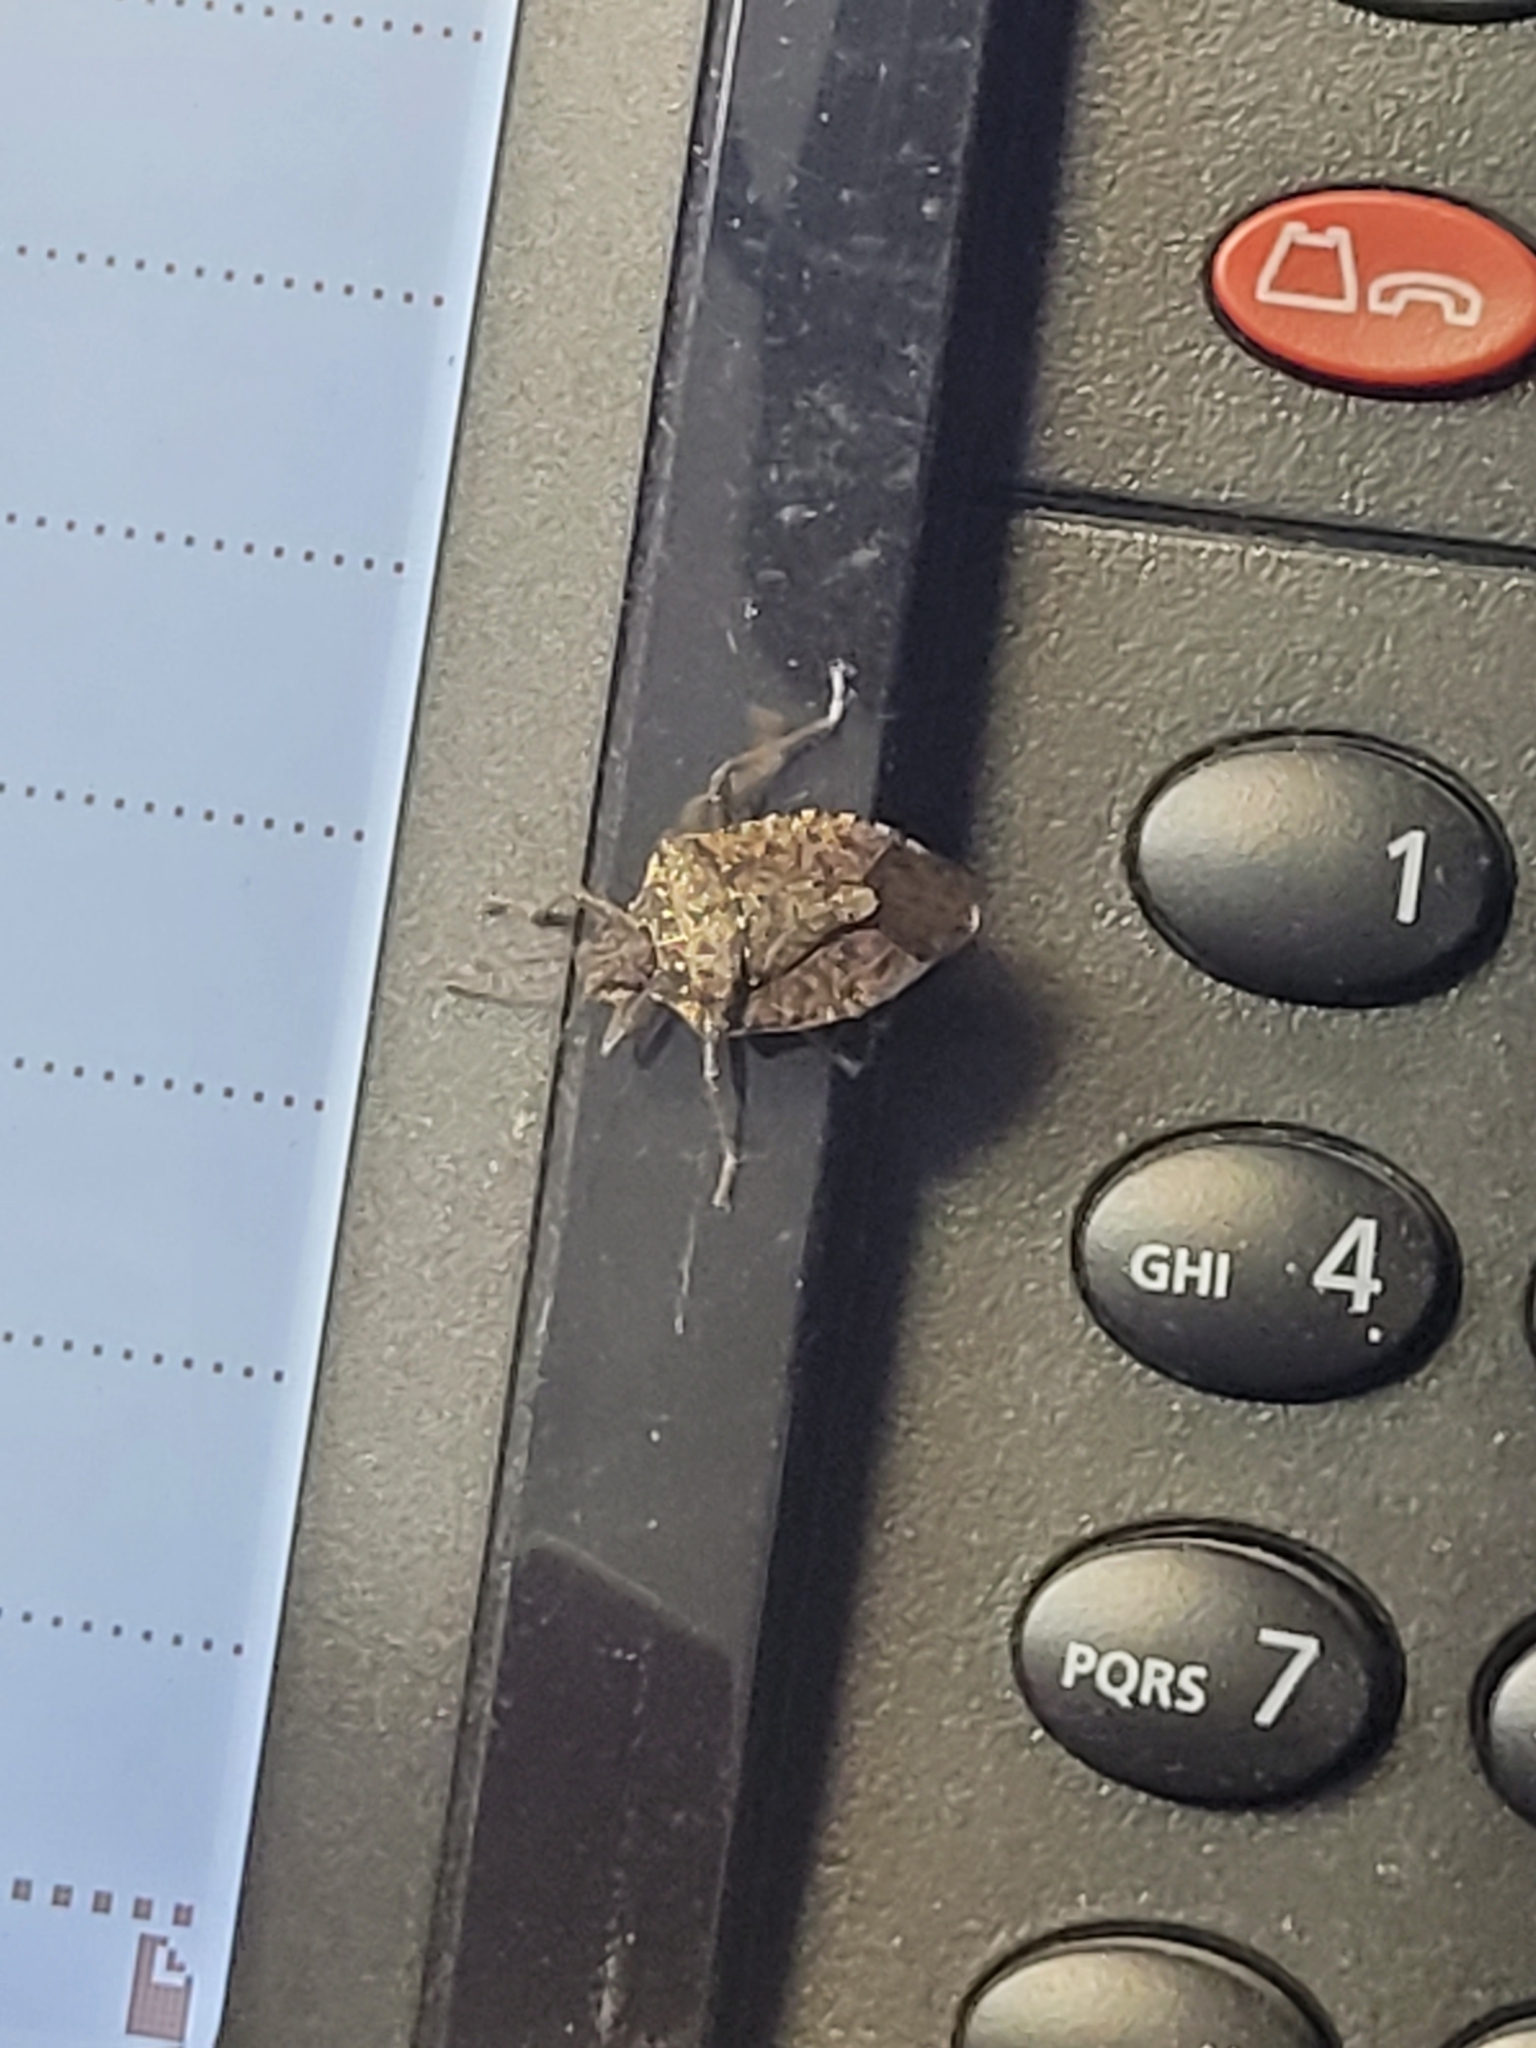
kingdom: Animalia
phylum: Arthropoda
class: Insecta
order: Hemiptera
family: Pentatomidae
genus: Halyomorpha
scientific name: Halyomorpha halys
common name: Brown marmorated stink bug
